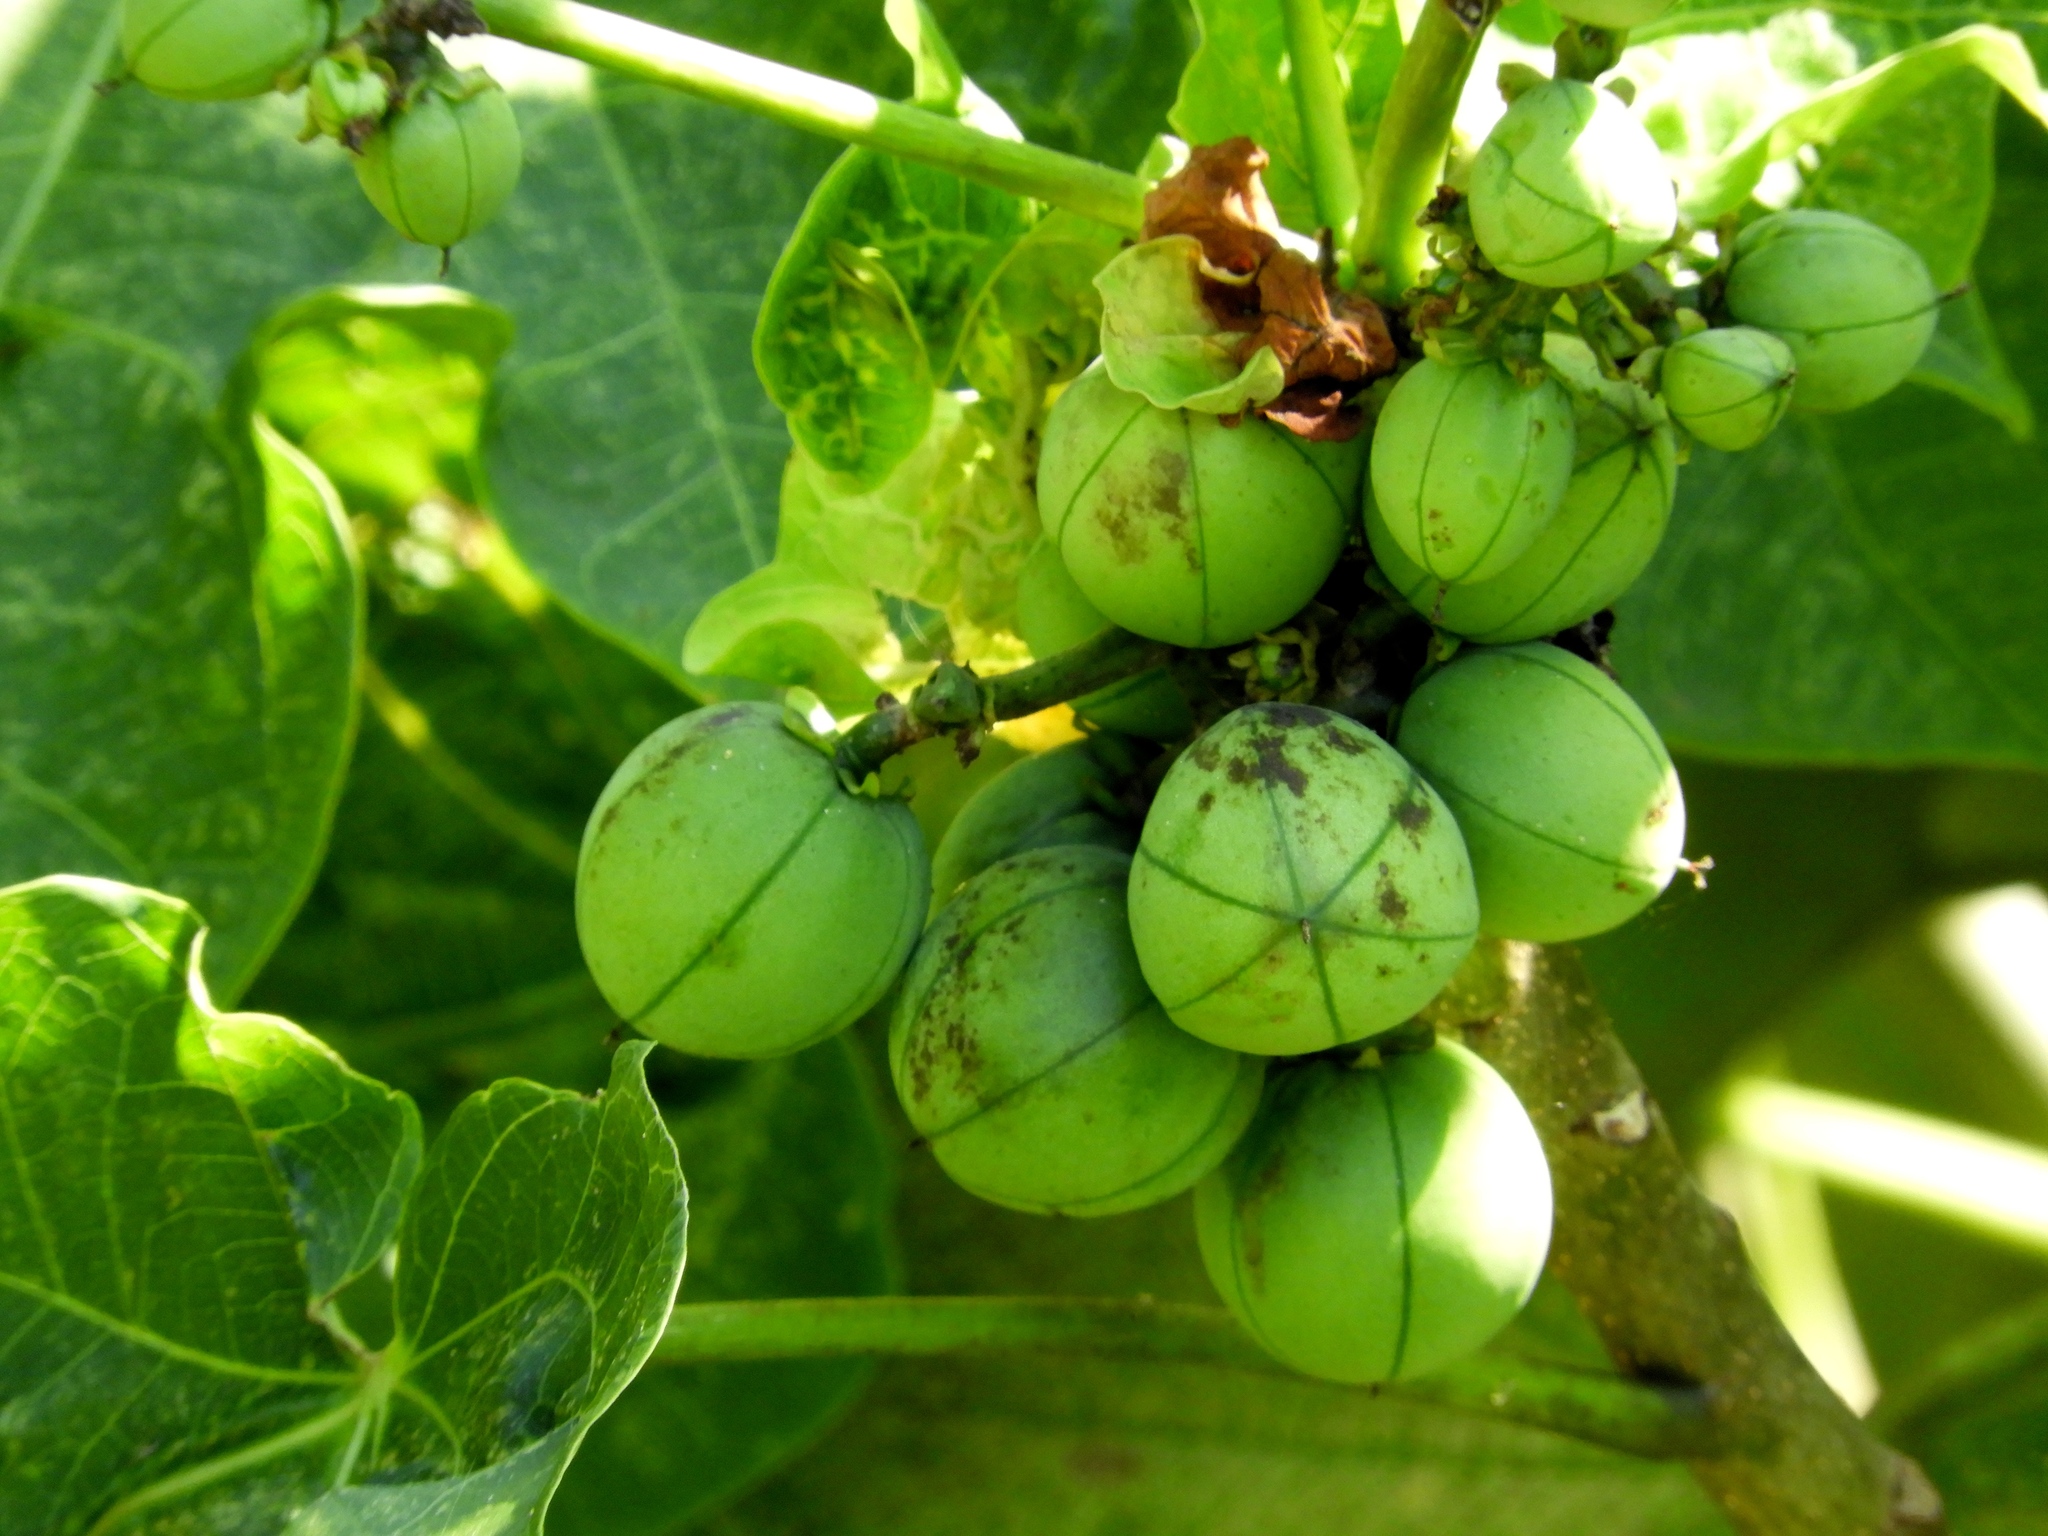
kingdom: Plantae
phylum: Tracheophyta
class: Magnoliopsida
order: Malpighiales
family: Euphorbiaceae
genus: Jatropha
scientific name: Jatropha curcas
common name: Barbados nut
